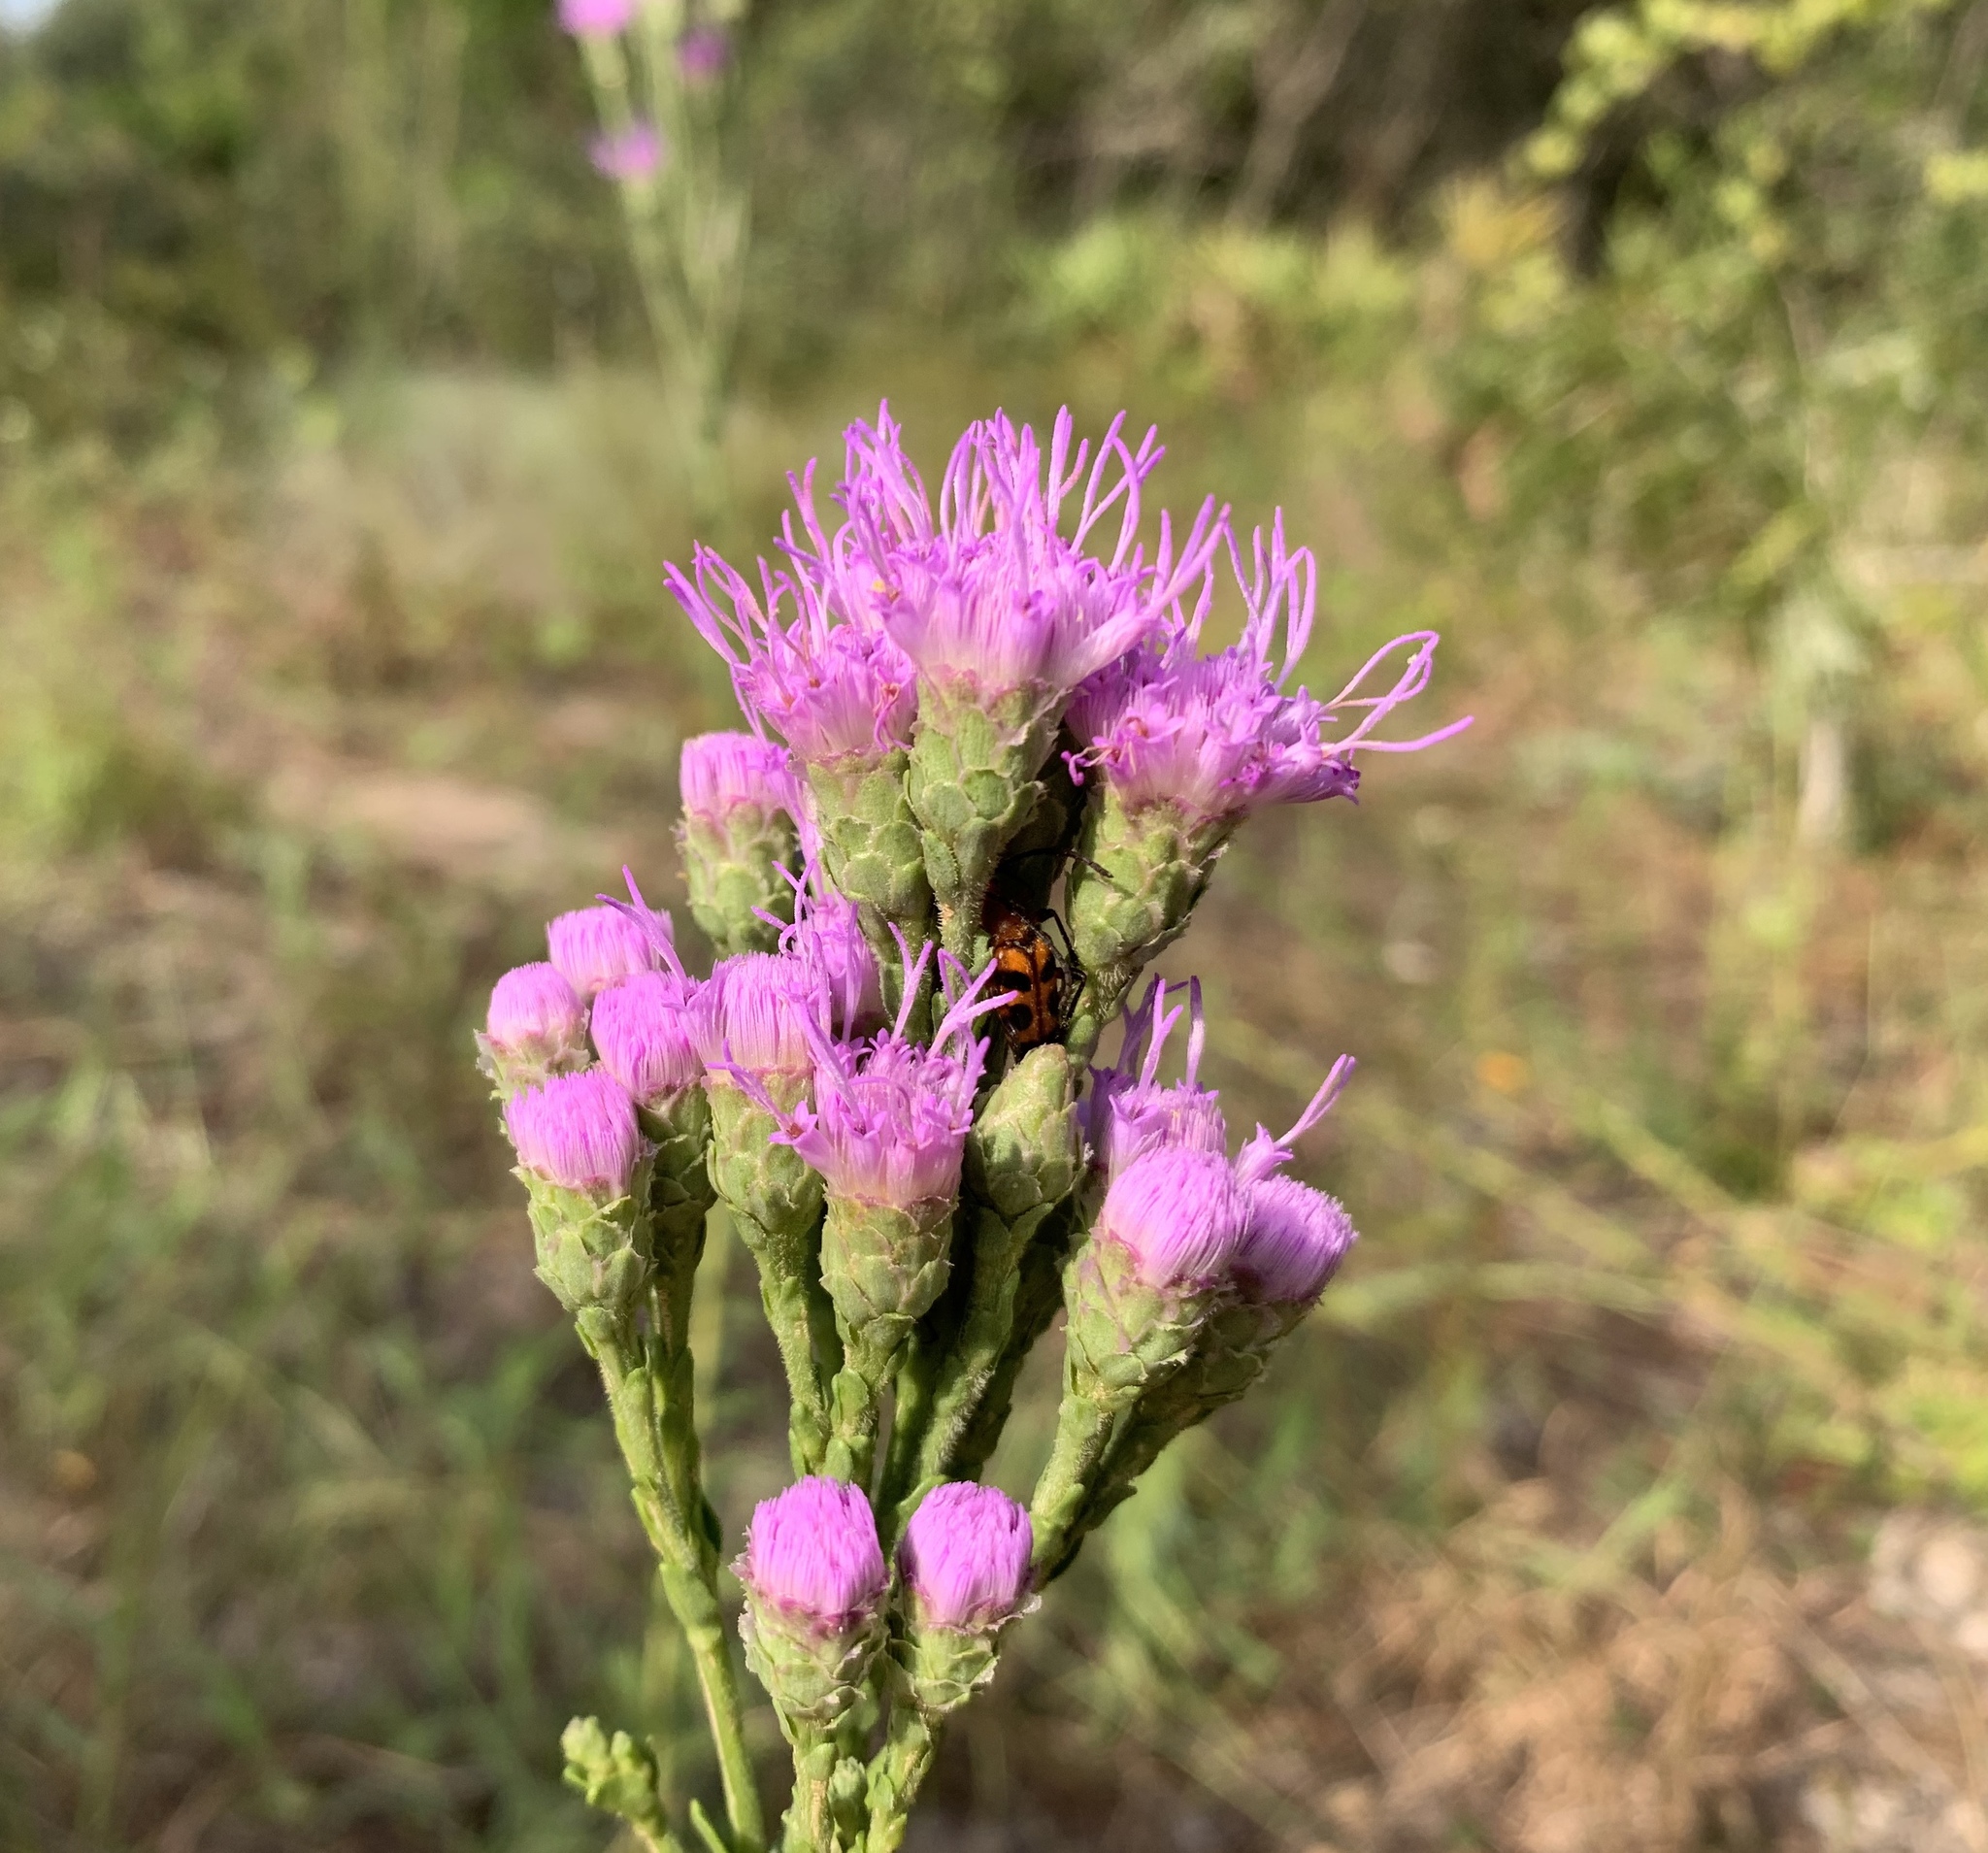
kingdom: Plantae
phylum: Tracheophyta
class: Magnoliopsida
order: Asterales
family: Asteraceae
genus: Carphephorus
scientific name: Carphephorus corymbosus
